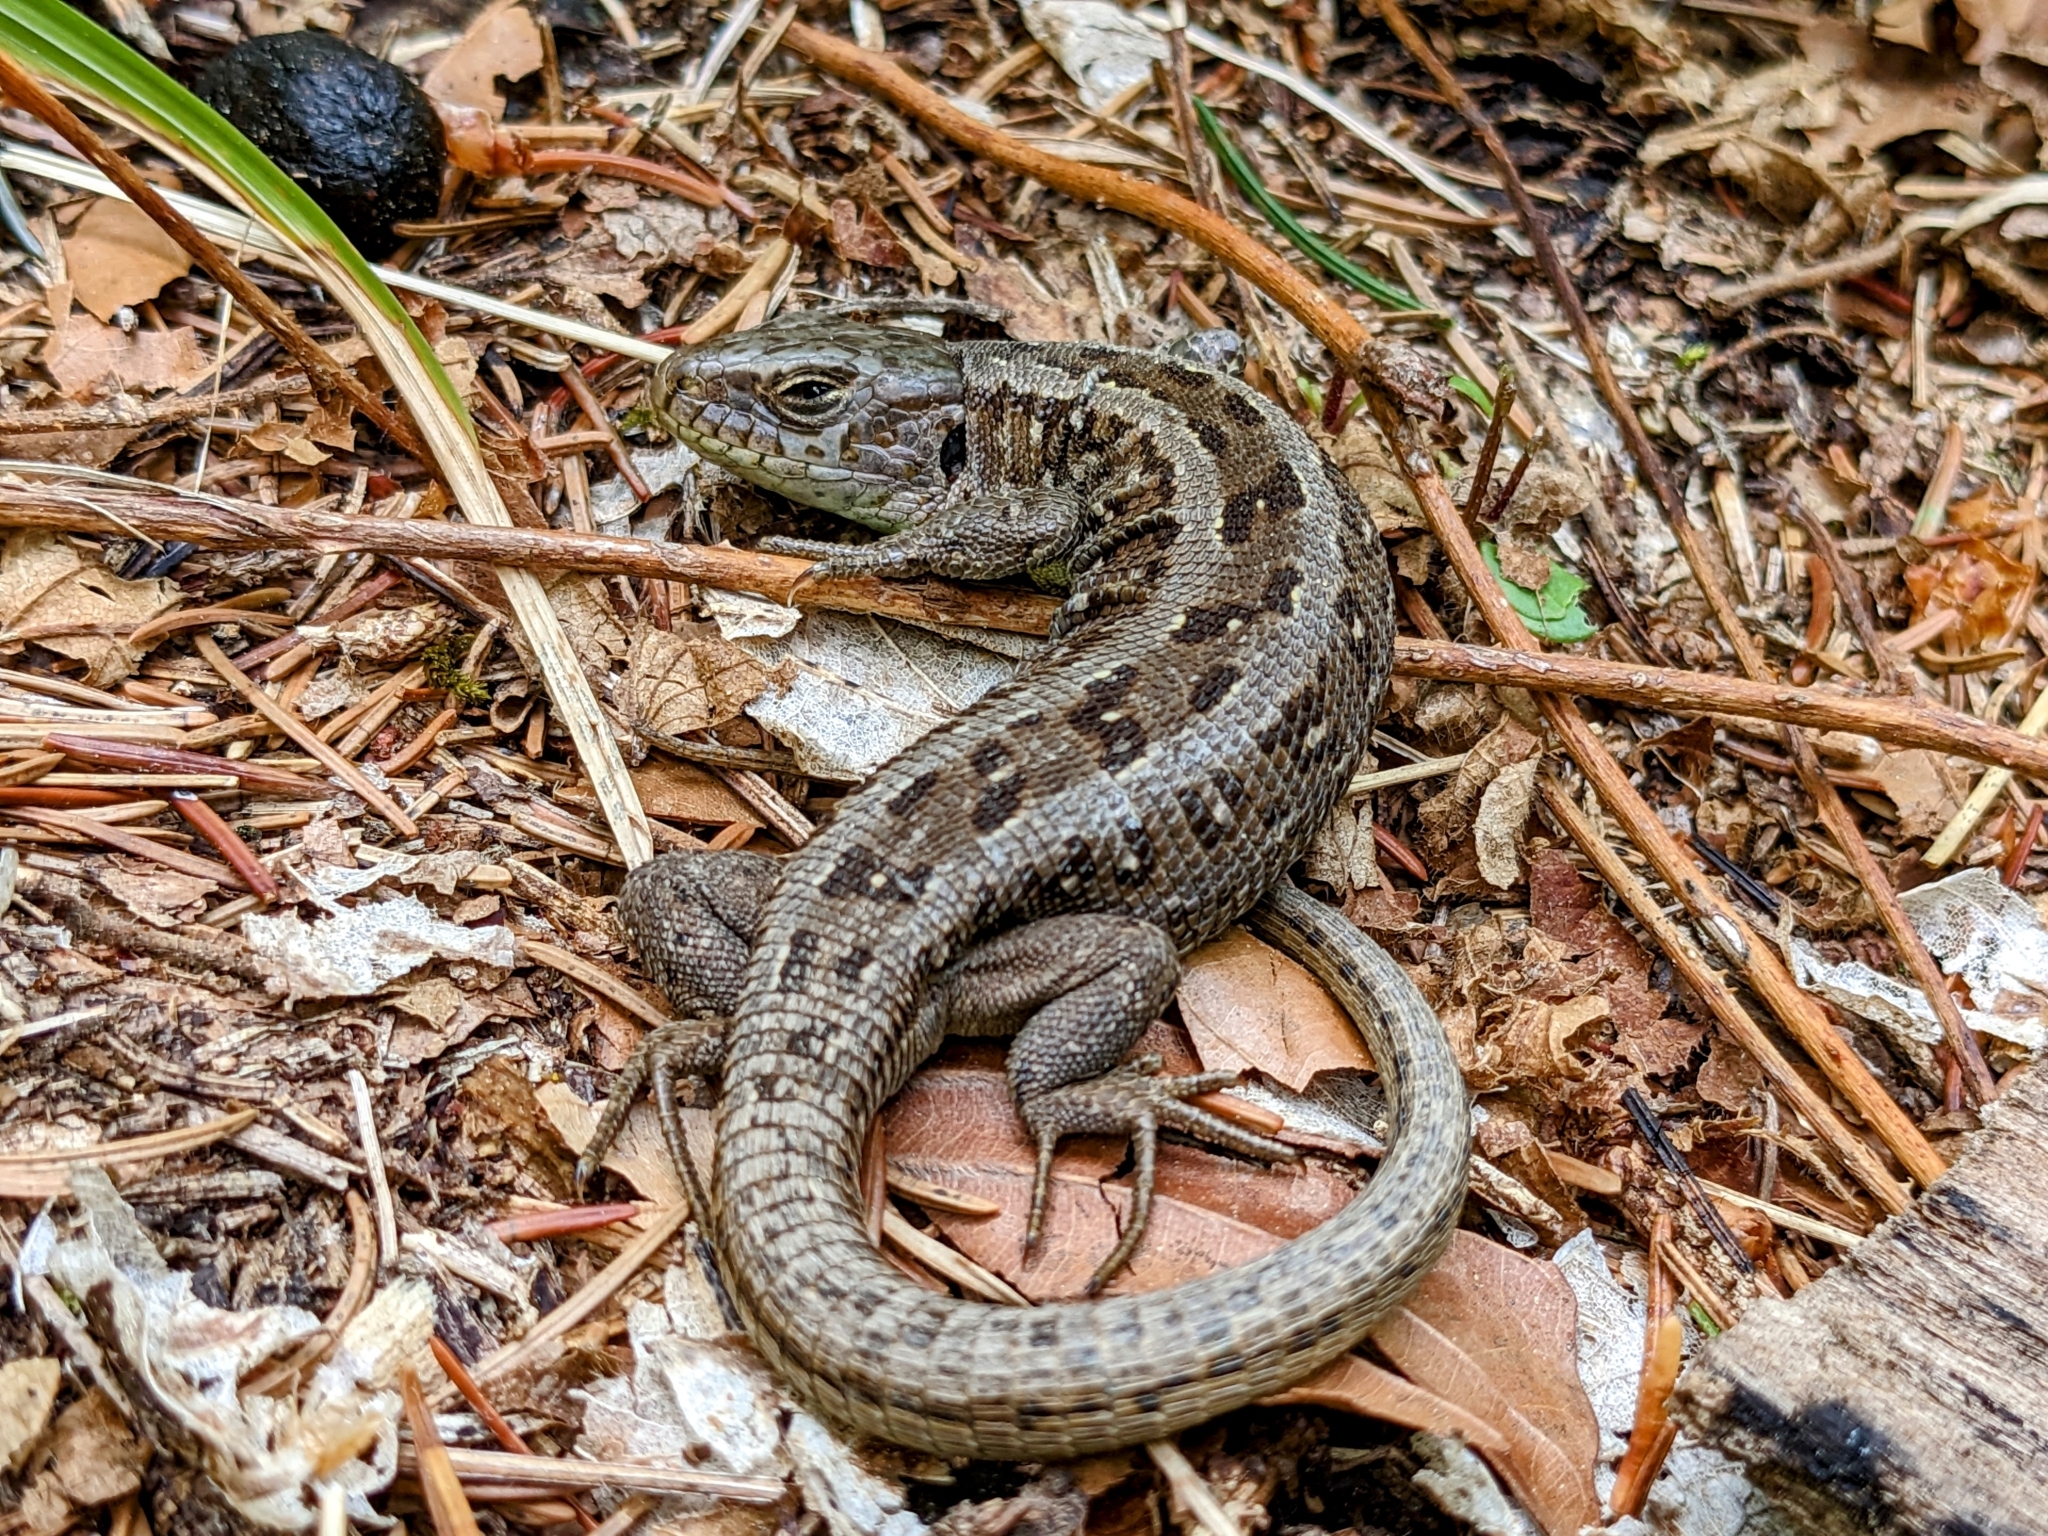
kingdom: Animalia
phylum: Chordata
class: Squamata
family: Lacertidae
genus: Lacerta
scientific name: Lacerta agilis
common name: Sand lizard
